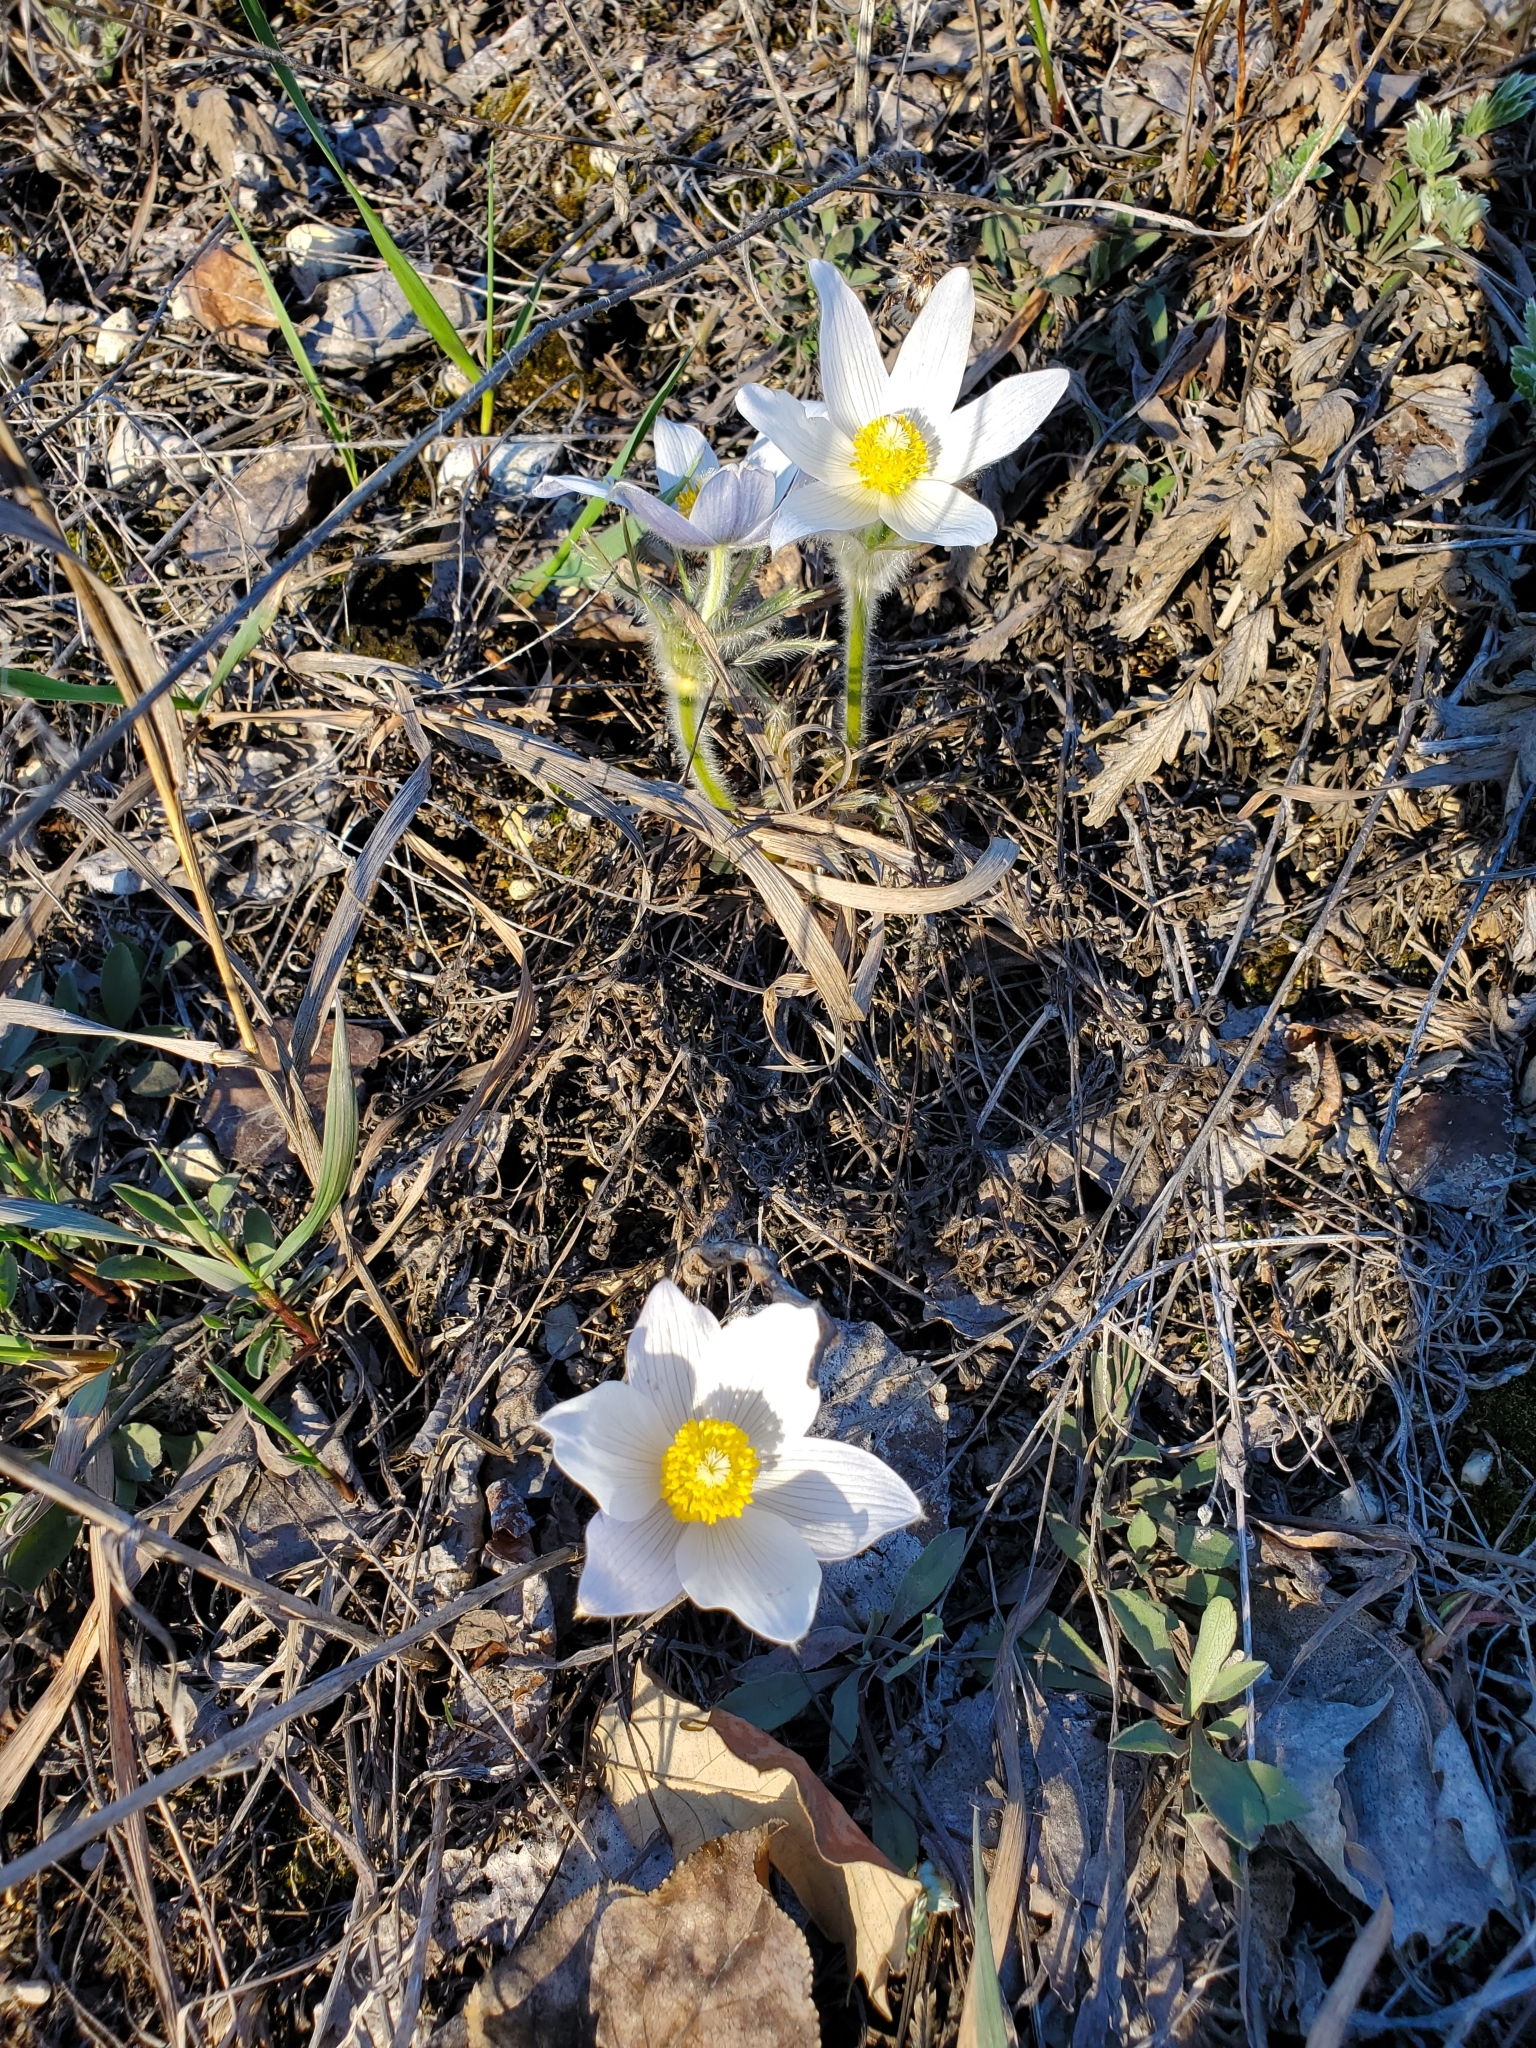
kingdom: Plantae
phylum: Tracheophyta
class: Magnoliopsida
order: Ranunculales
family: Ranunculaceae
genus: Pulsatilla
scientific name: Pulsatilla nuttalliana
